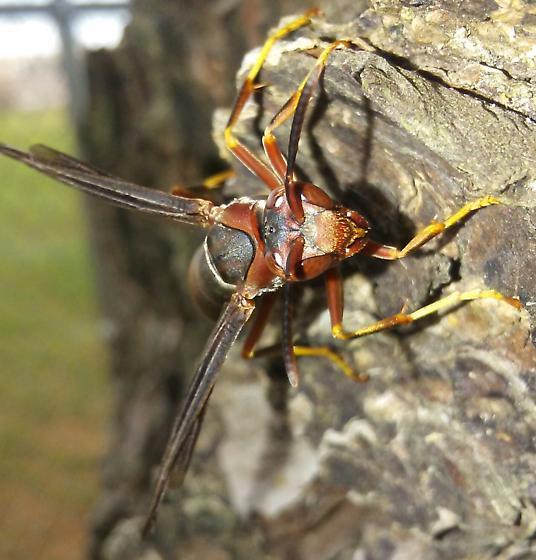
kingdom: Animalia
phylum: Arthropoda
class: Insecta
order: Hymenoptera
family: Eumenidae
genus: Polistes
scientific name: Polistes metricus
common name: Metric paper wasp
